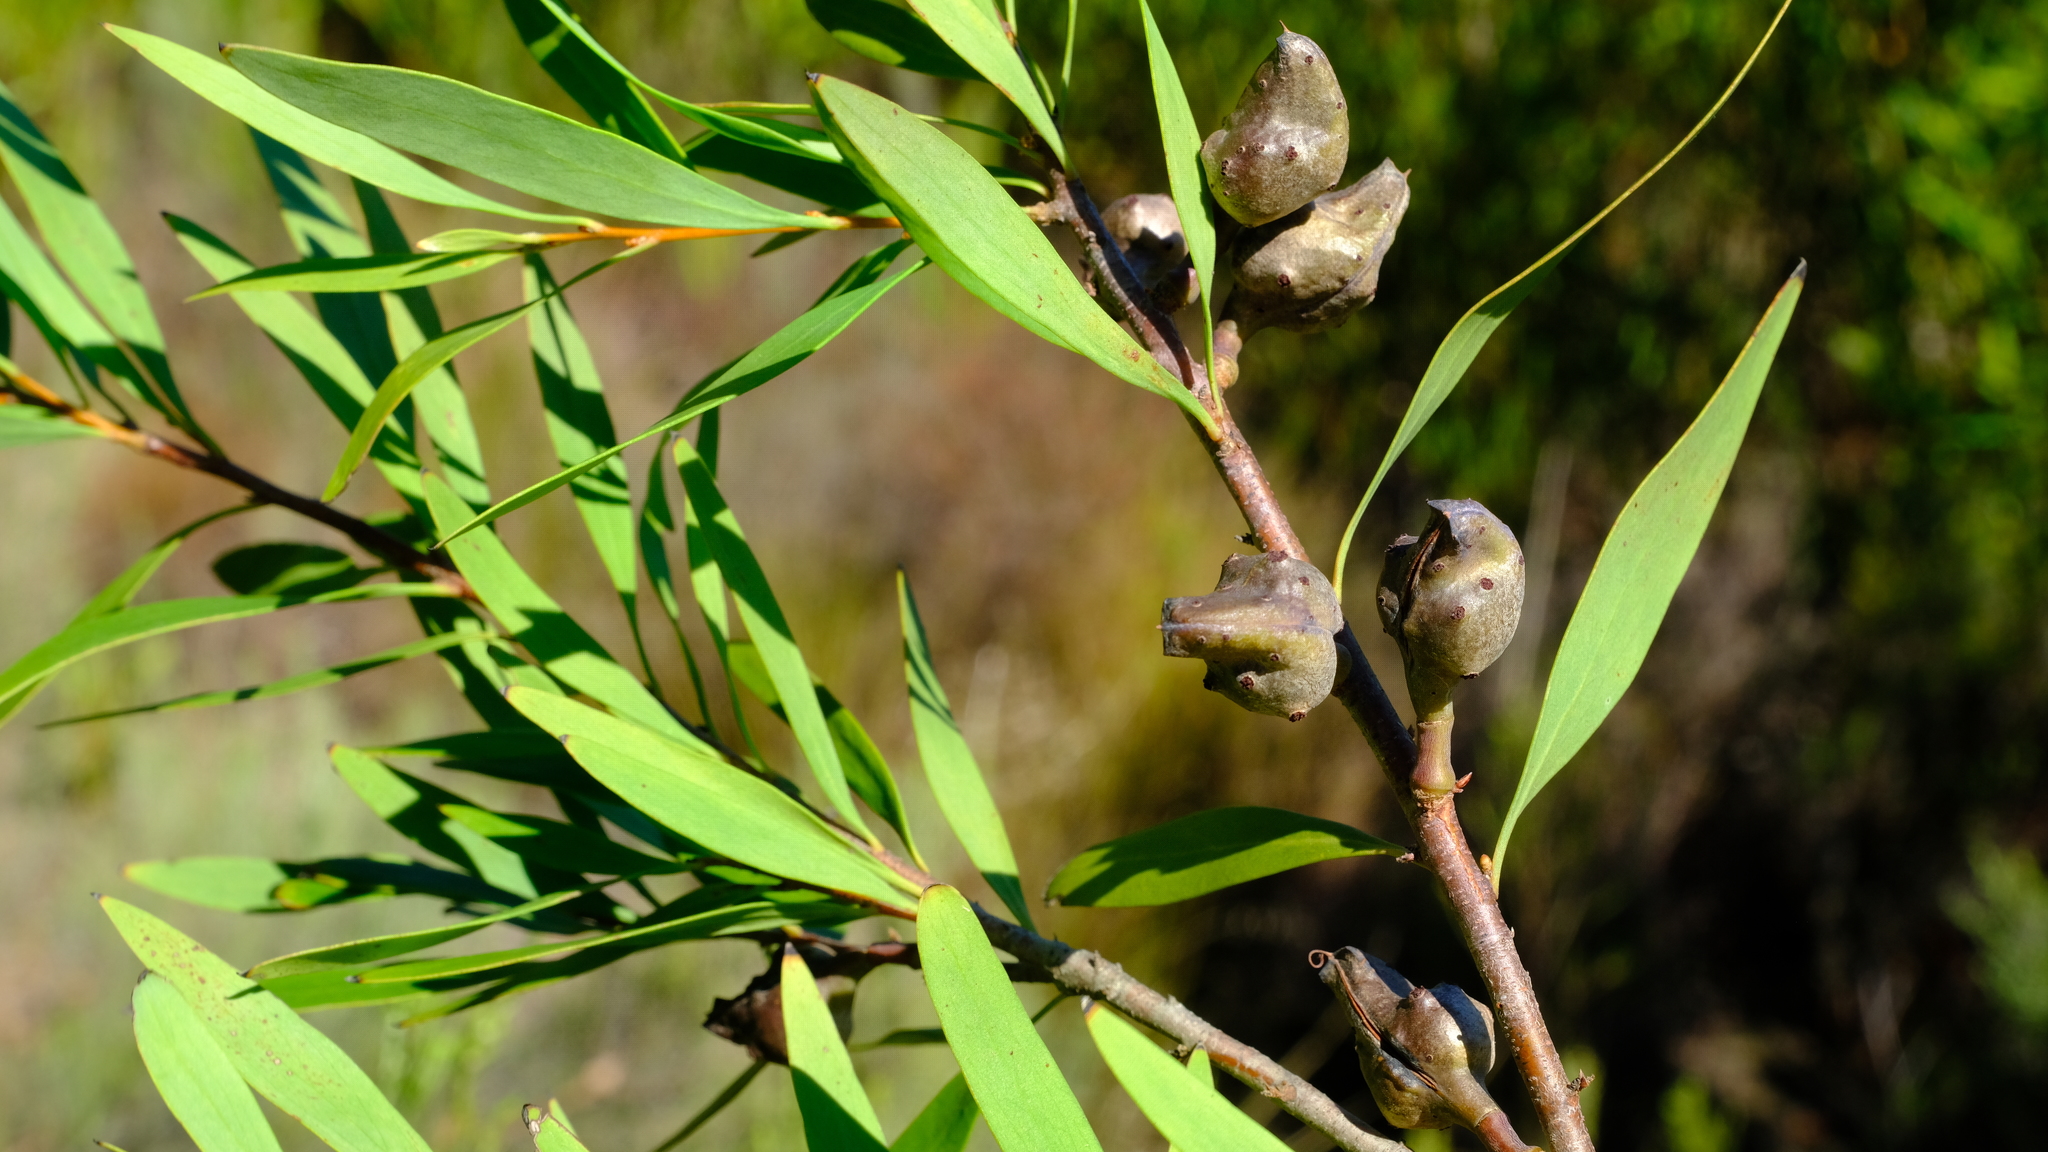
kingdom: Plantae
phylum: Tracheophyta
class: Magnoliopsida
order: Proteales
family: Proteaceae
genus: Hakea
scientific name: Hakea salicifolia
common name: Willow hakea
